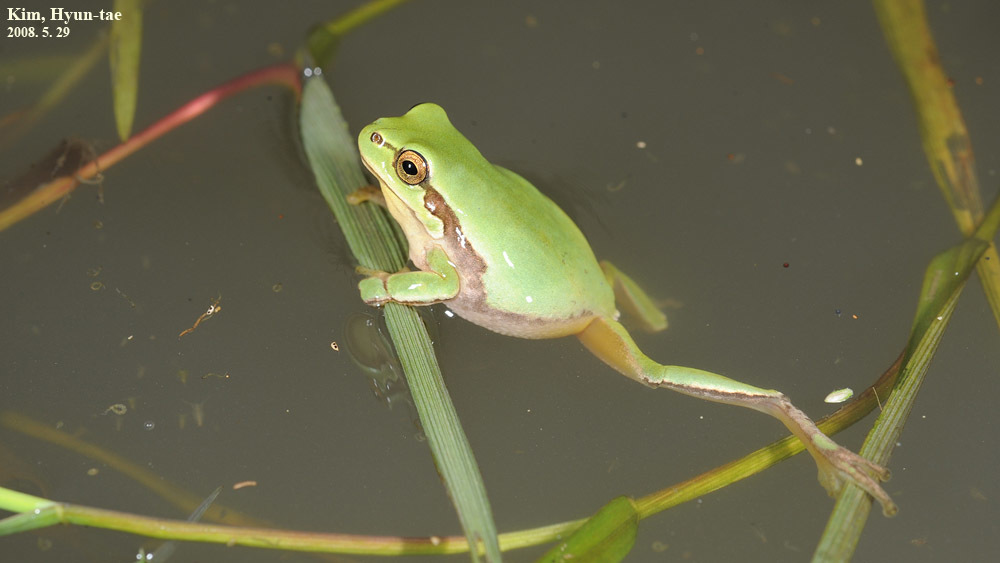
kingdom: Animalia
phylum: Chordata
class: Amphibia
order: Anura
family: Hylidae
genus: Dryophytes
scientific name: Dryophytes immaculatus
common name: North china treefrog
